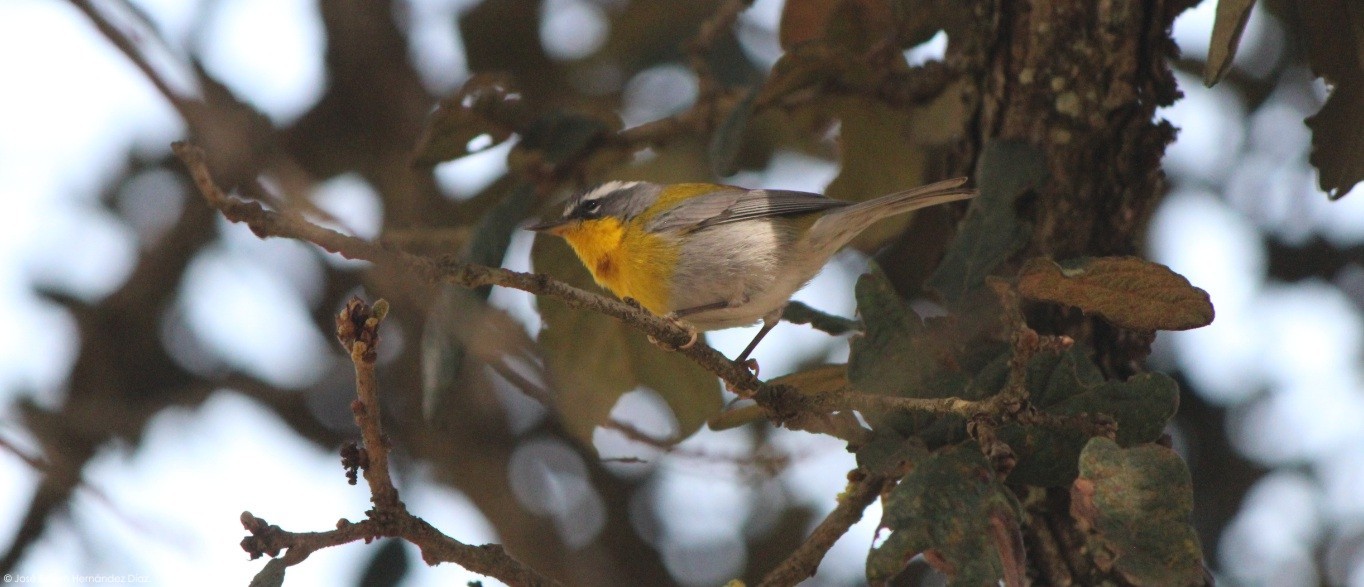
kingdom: Animalia
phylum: Chordata
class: Aves
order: Passeriformes
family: Parulidae
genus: Oreothlypis
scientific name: Oreothlypis superciliosa
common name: Crescent-chested warbler
